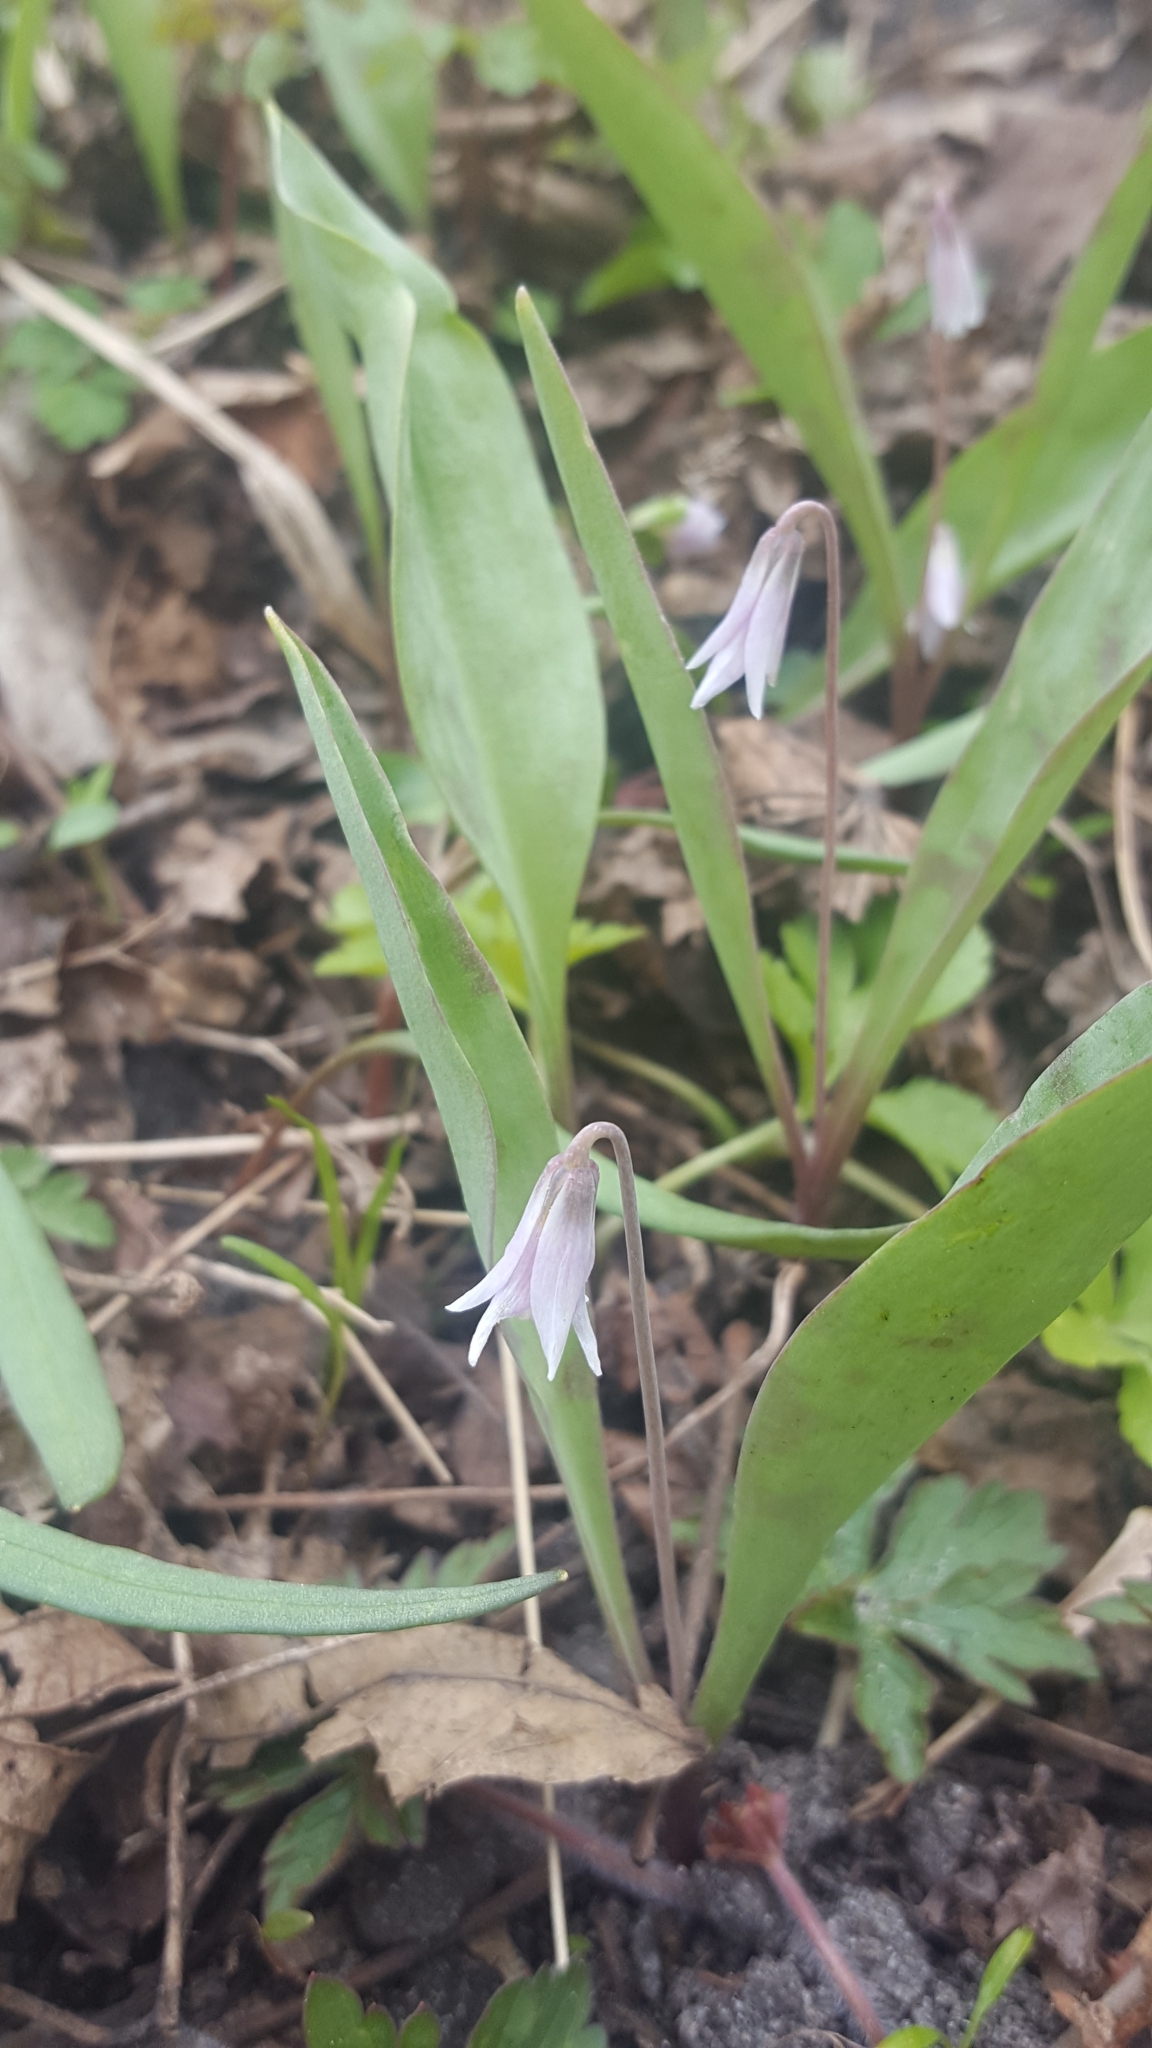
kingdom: Plantae
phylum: Tracheophyta
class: Liliopsida
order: Liliales
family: Liliaceae
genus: Erythronium
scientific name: Erythronium propullans
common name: Minnesota dwarf trout-lily
